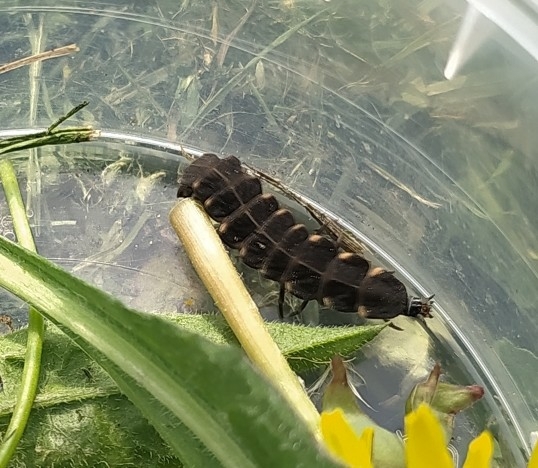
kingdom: Animalia
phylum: Arthropoda
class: Insecta
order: Coleoptera
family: Lampyridae
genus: Lampyris
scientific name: Lampyris noctiluca
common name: Glow-worm
